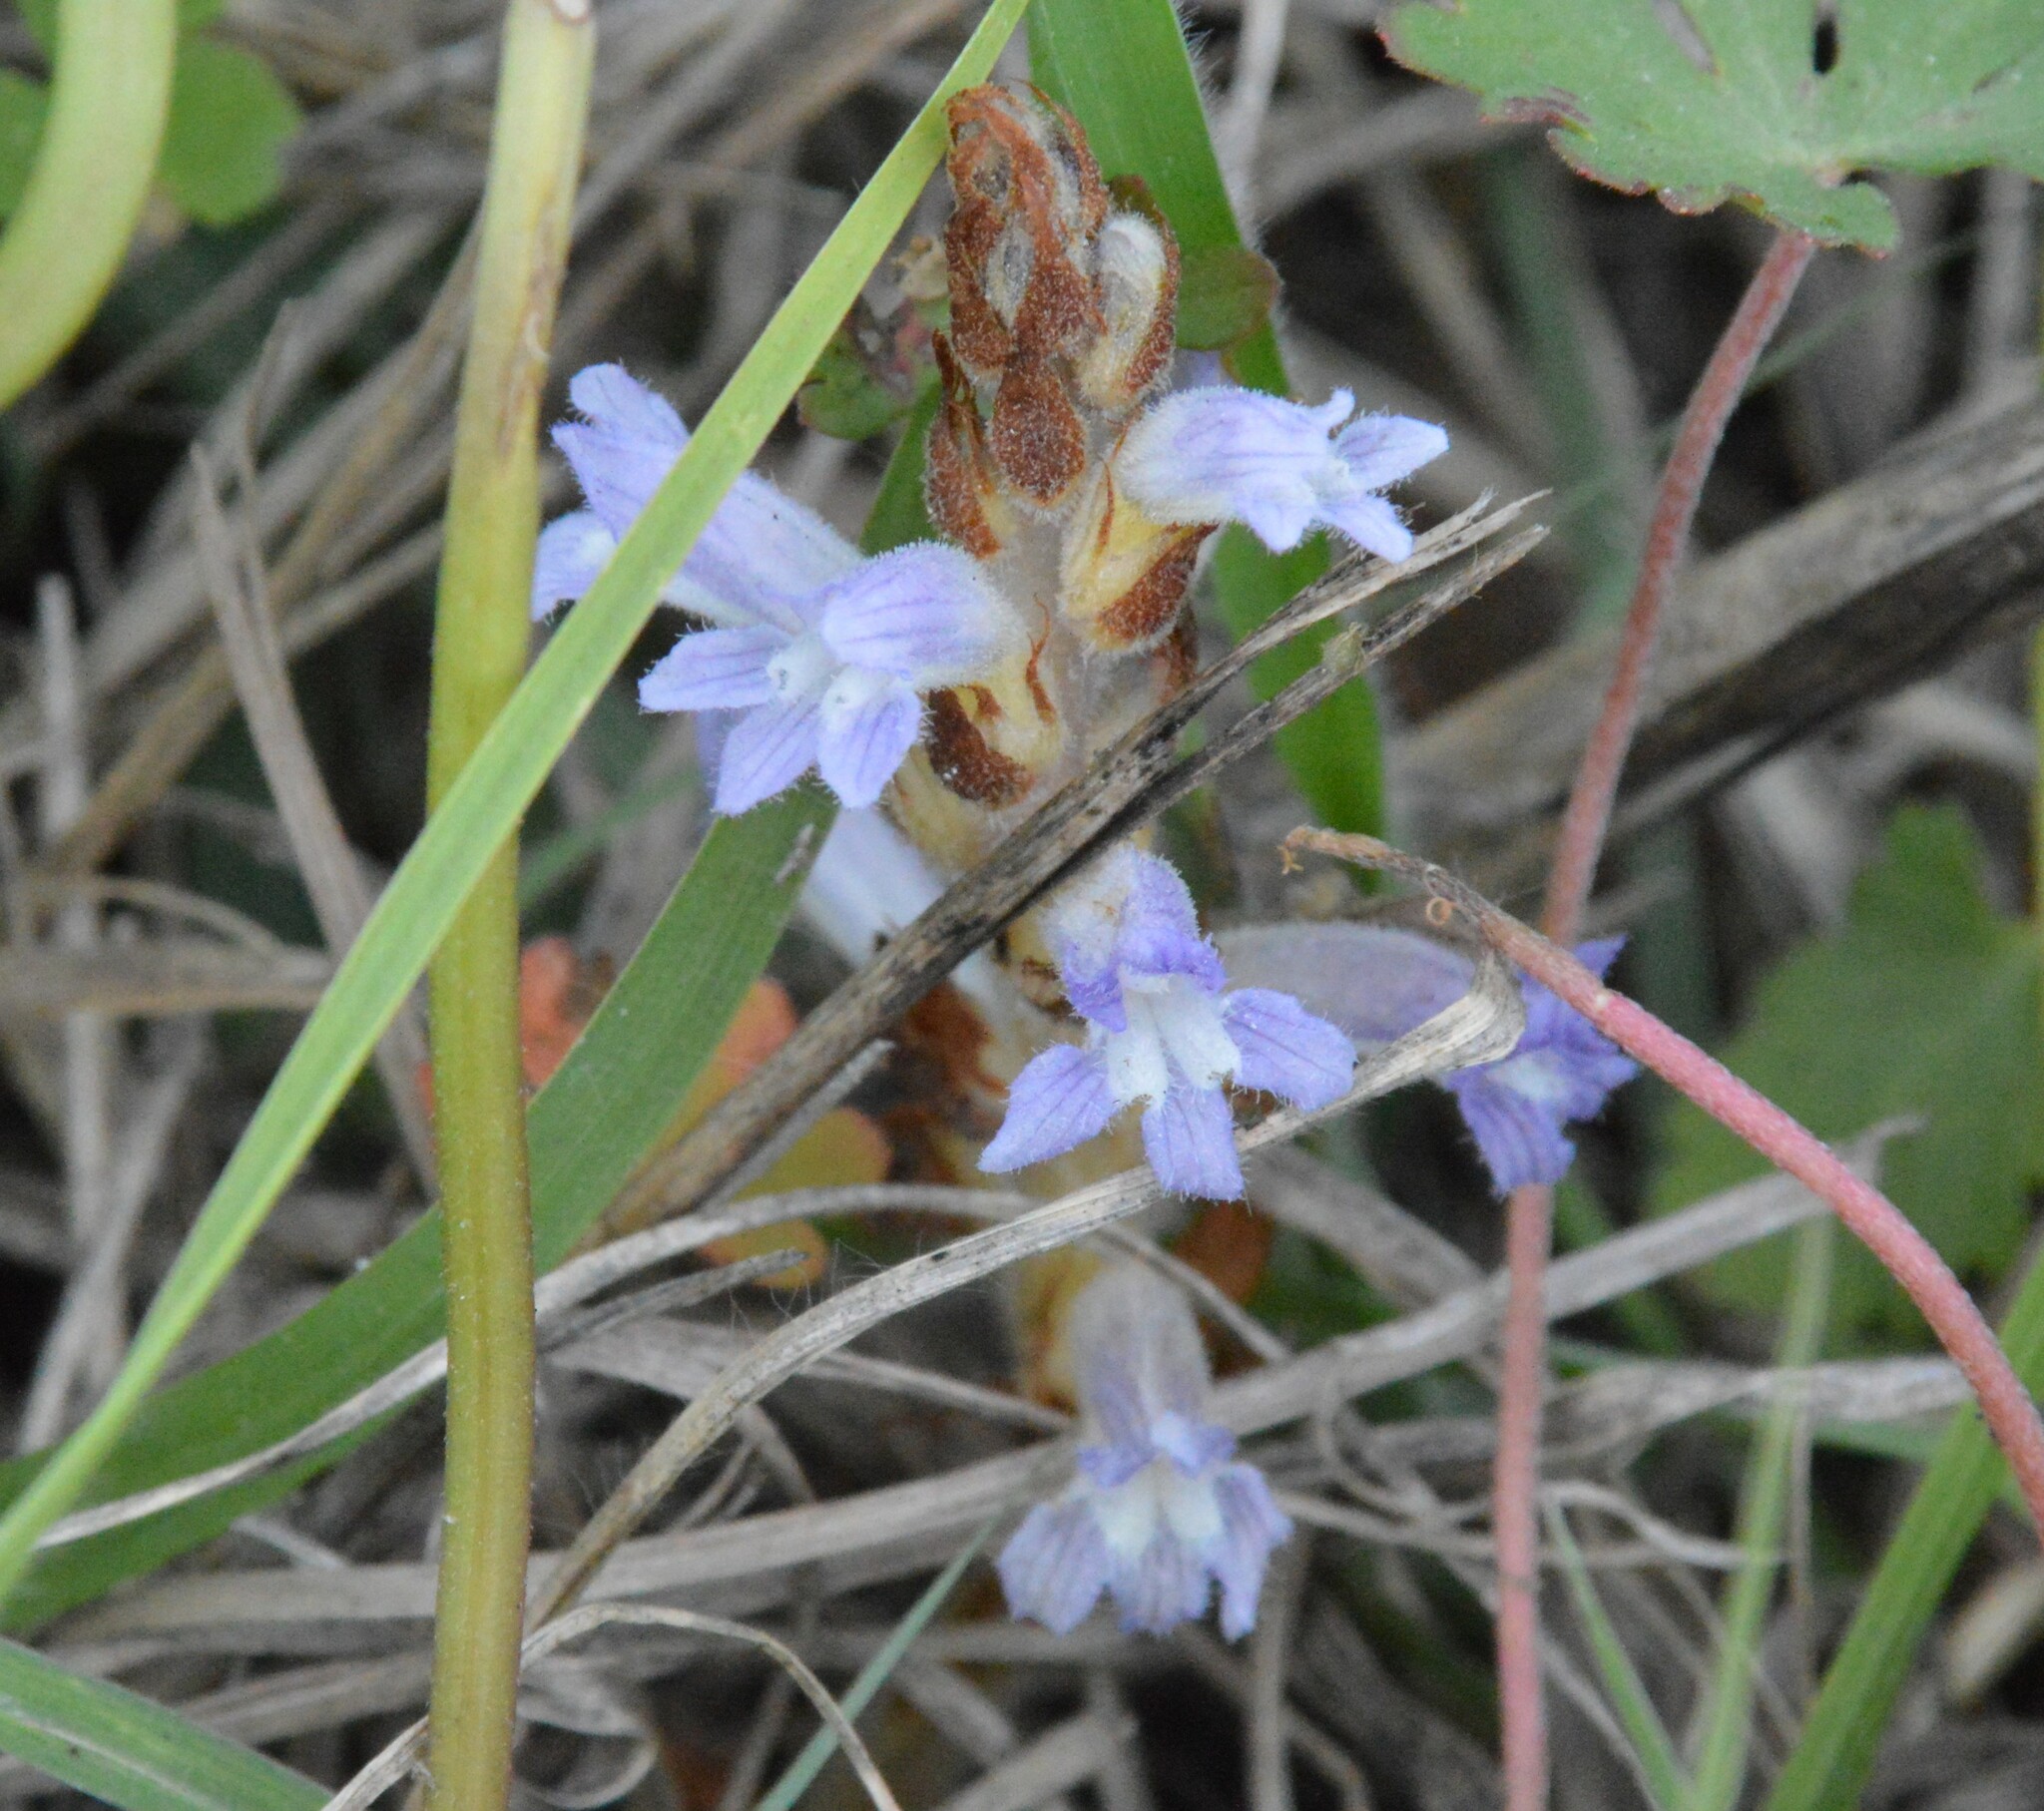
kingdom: Plantae
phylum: Tracheophyta
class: Magnoliopsida
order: Lamiales
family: Orobanchaceae
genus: Phelipanche
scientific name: Phelipanche mutelii
